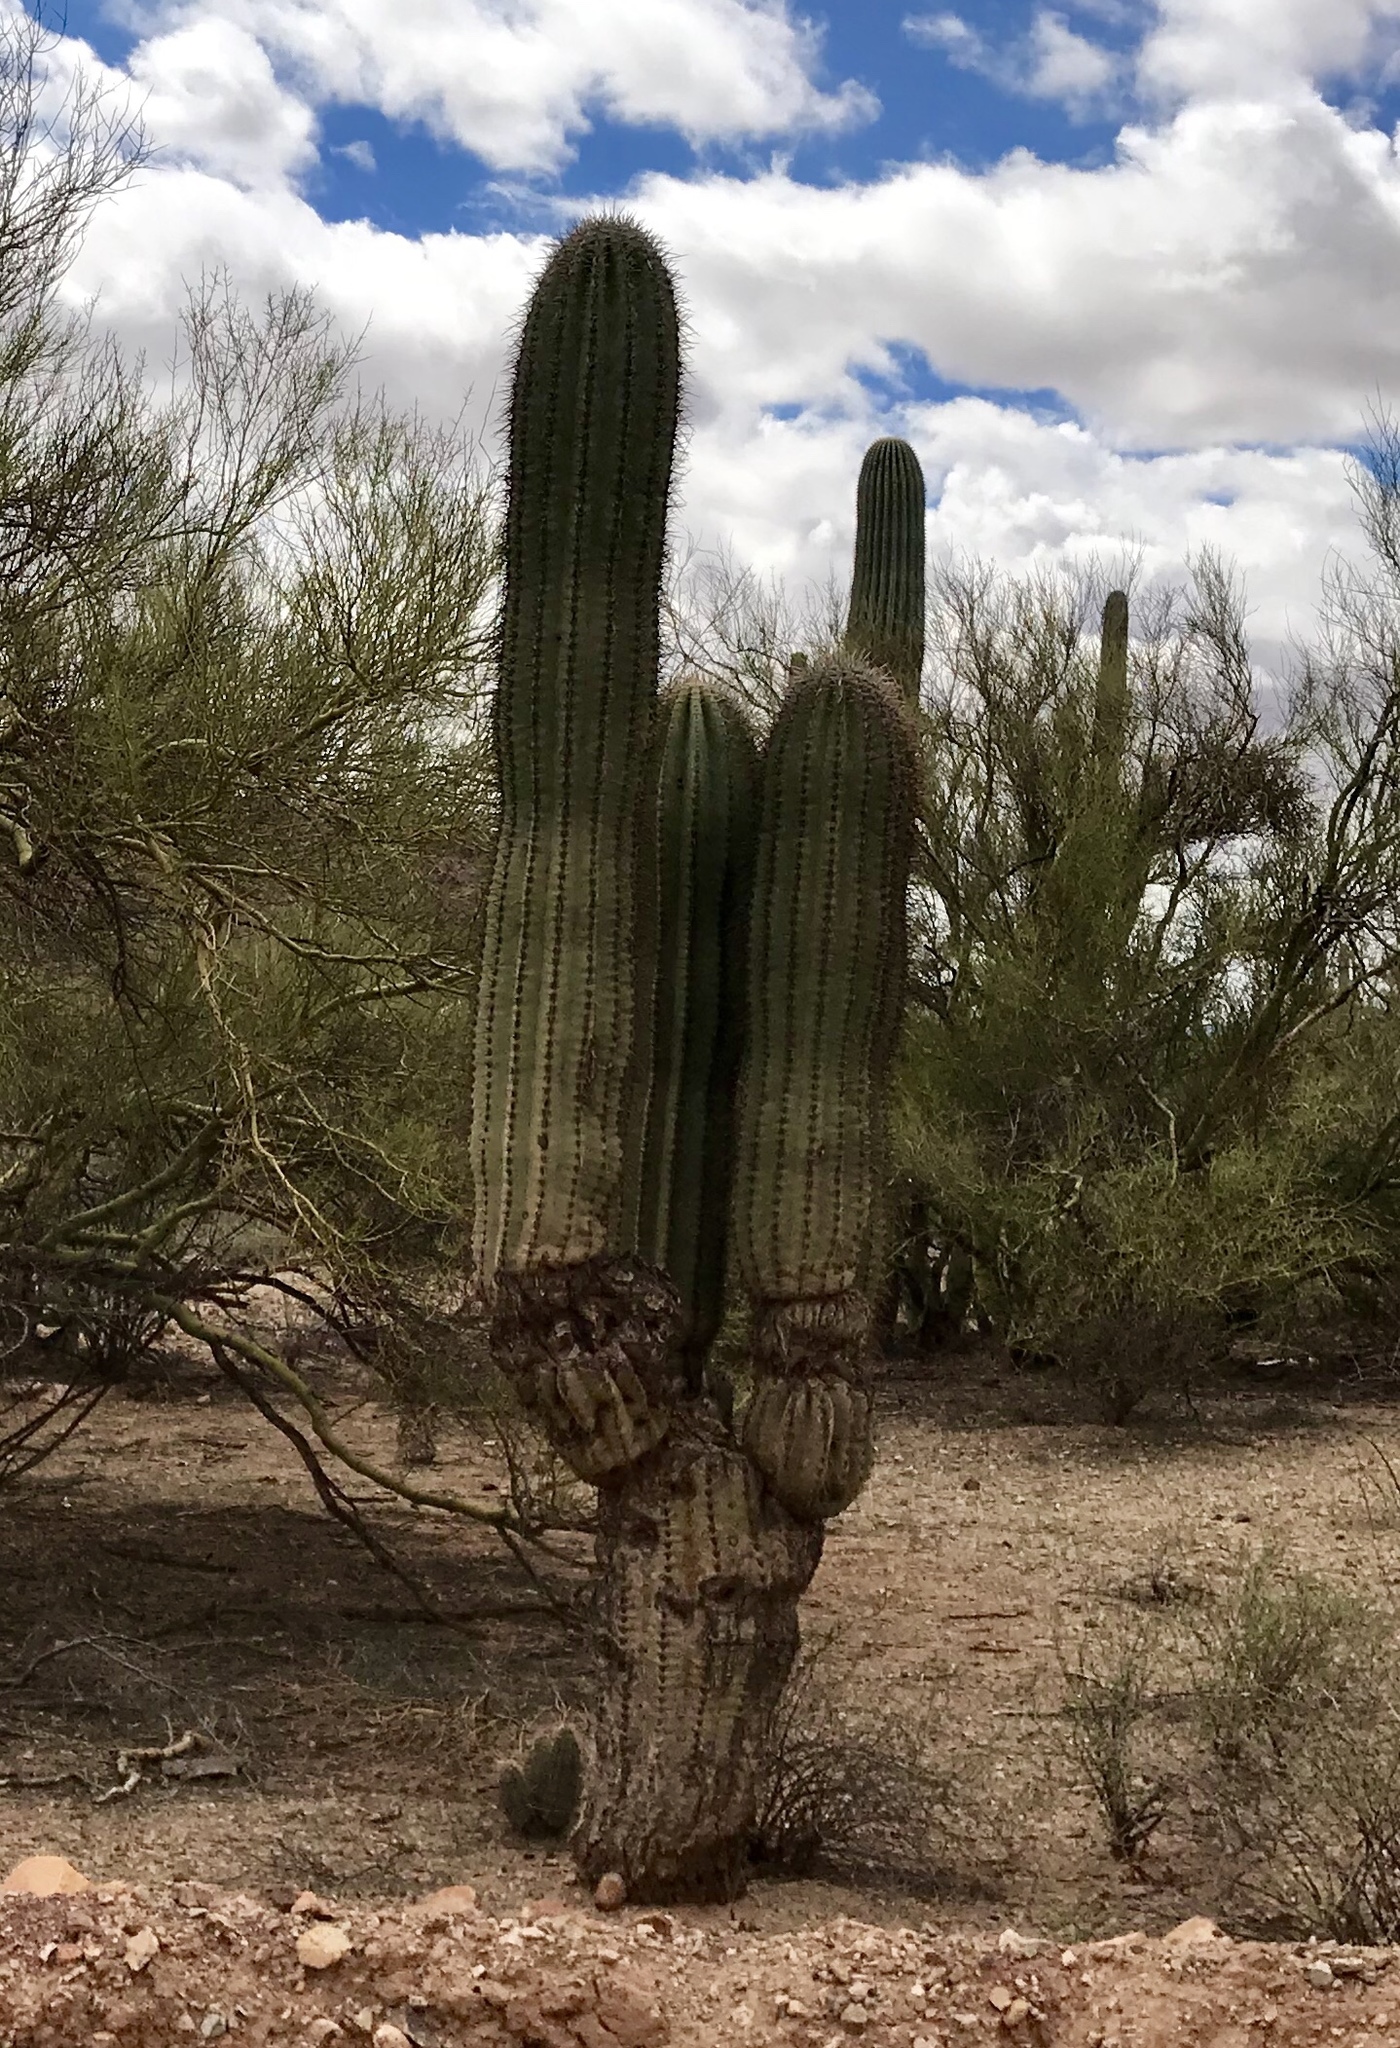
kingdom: Plantae
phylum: Tracheophyta
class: Magnoliopsida
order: Caryophyllales
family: Cactaceae
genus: Carnegiea
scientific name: Carnegiea gigantea
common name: Saguaro
